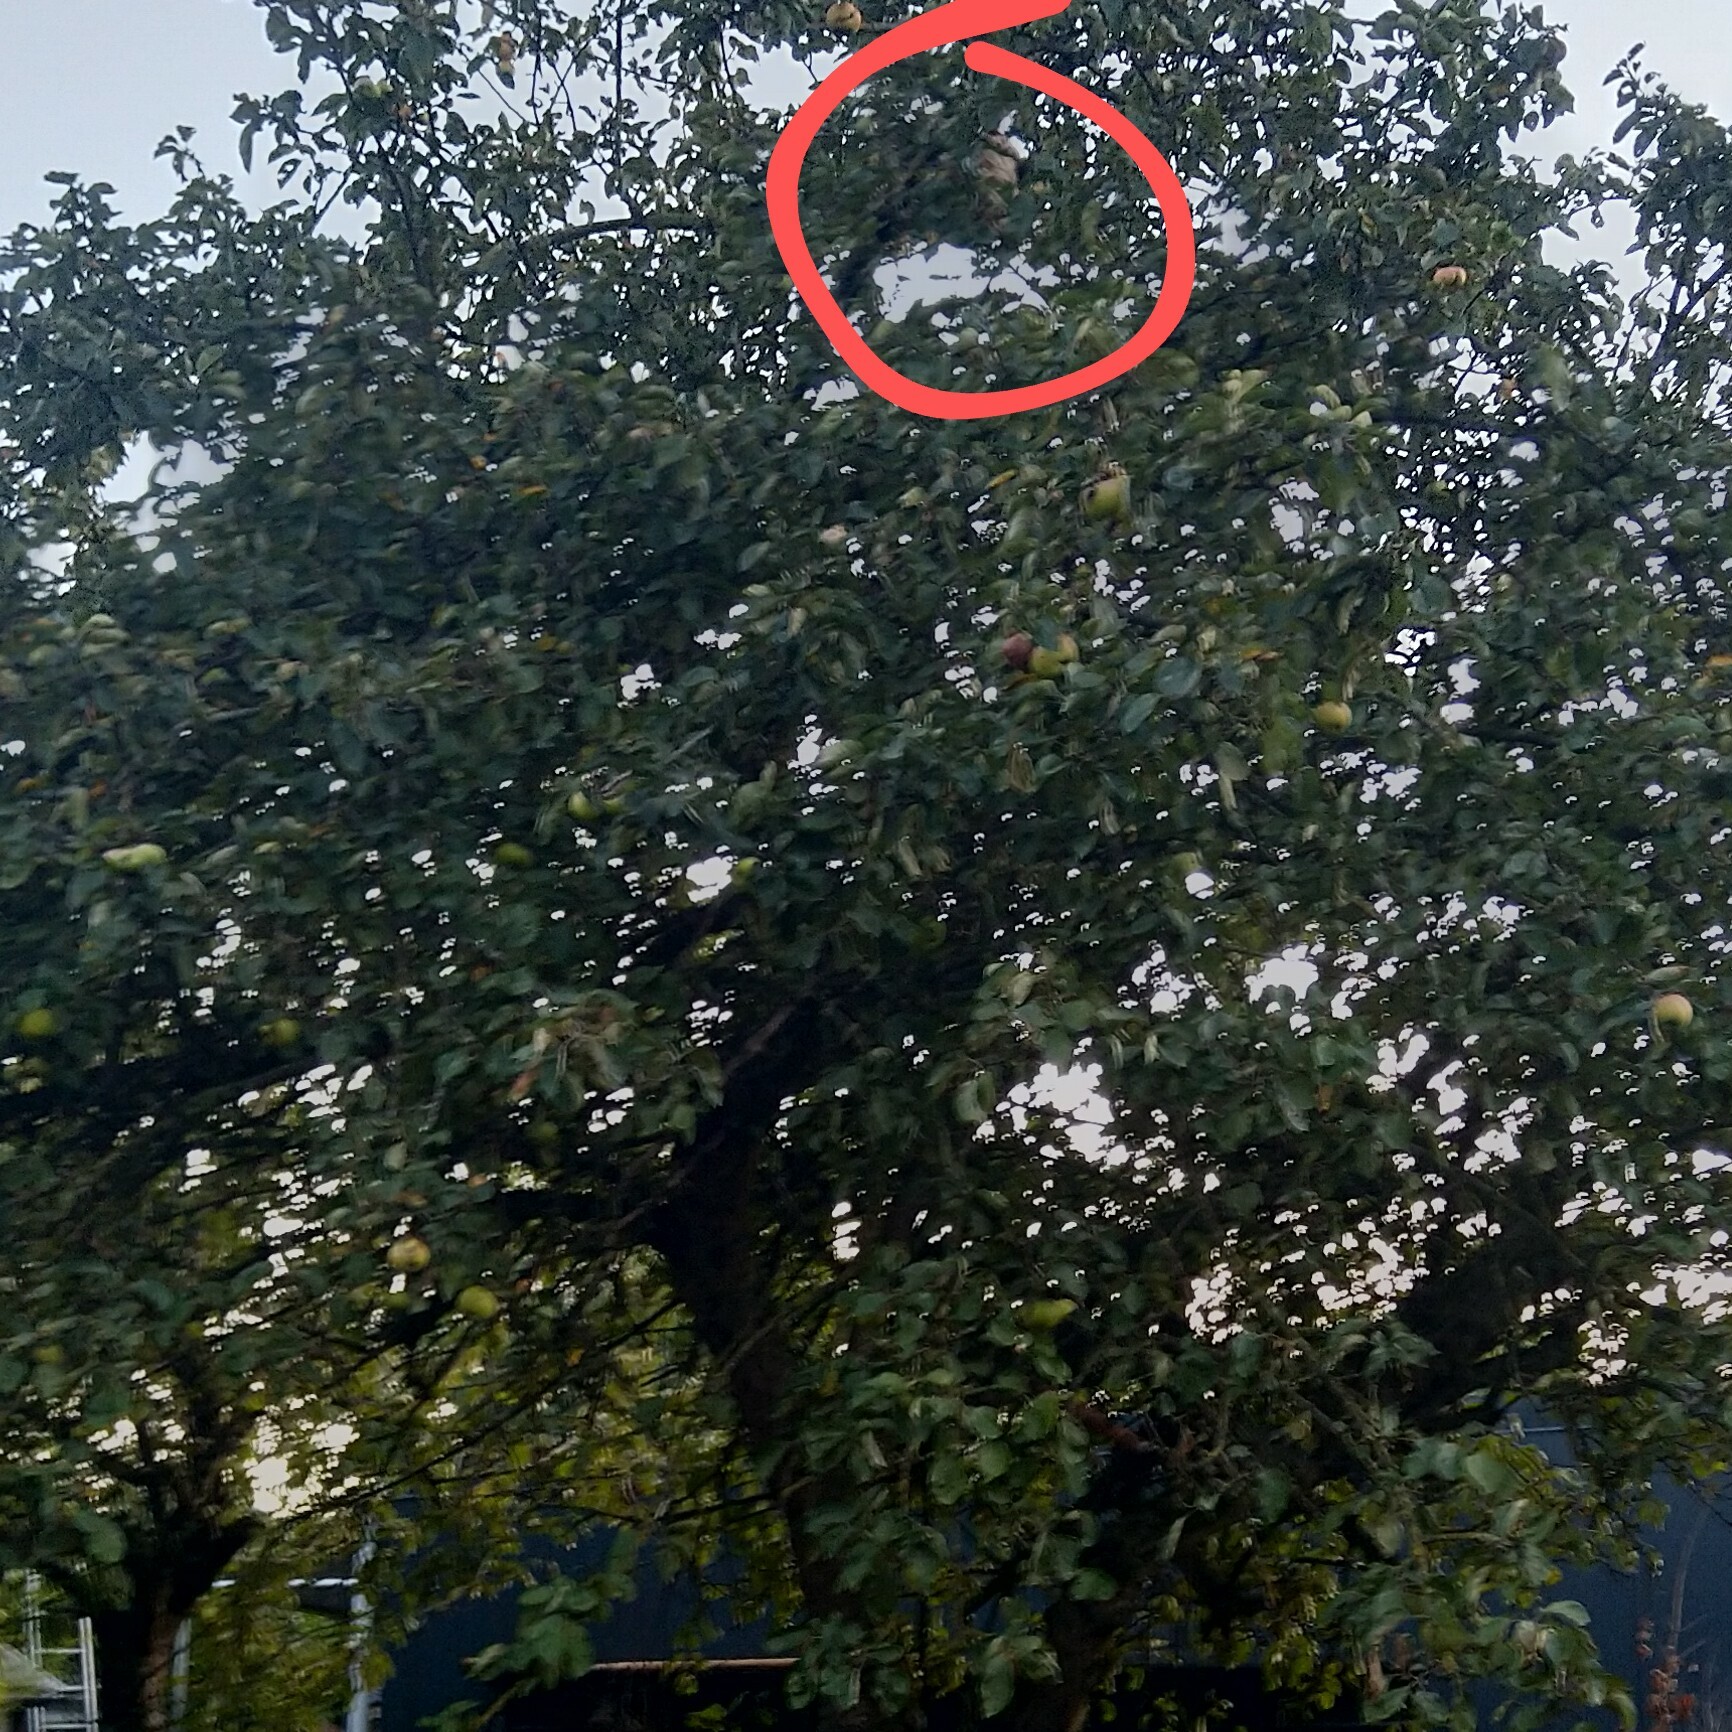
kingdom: Animalia
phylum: Arthropoda
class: Insecta
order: Hymenoptera
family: Vespidae
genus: Vespa
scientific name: Vespa velutina
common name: Asian hornet
